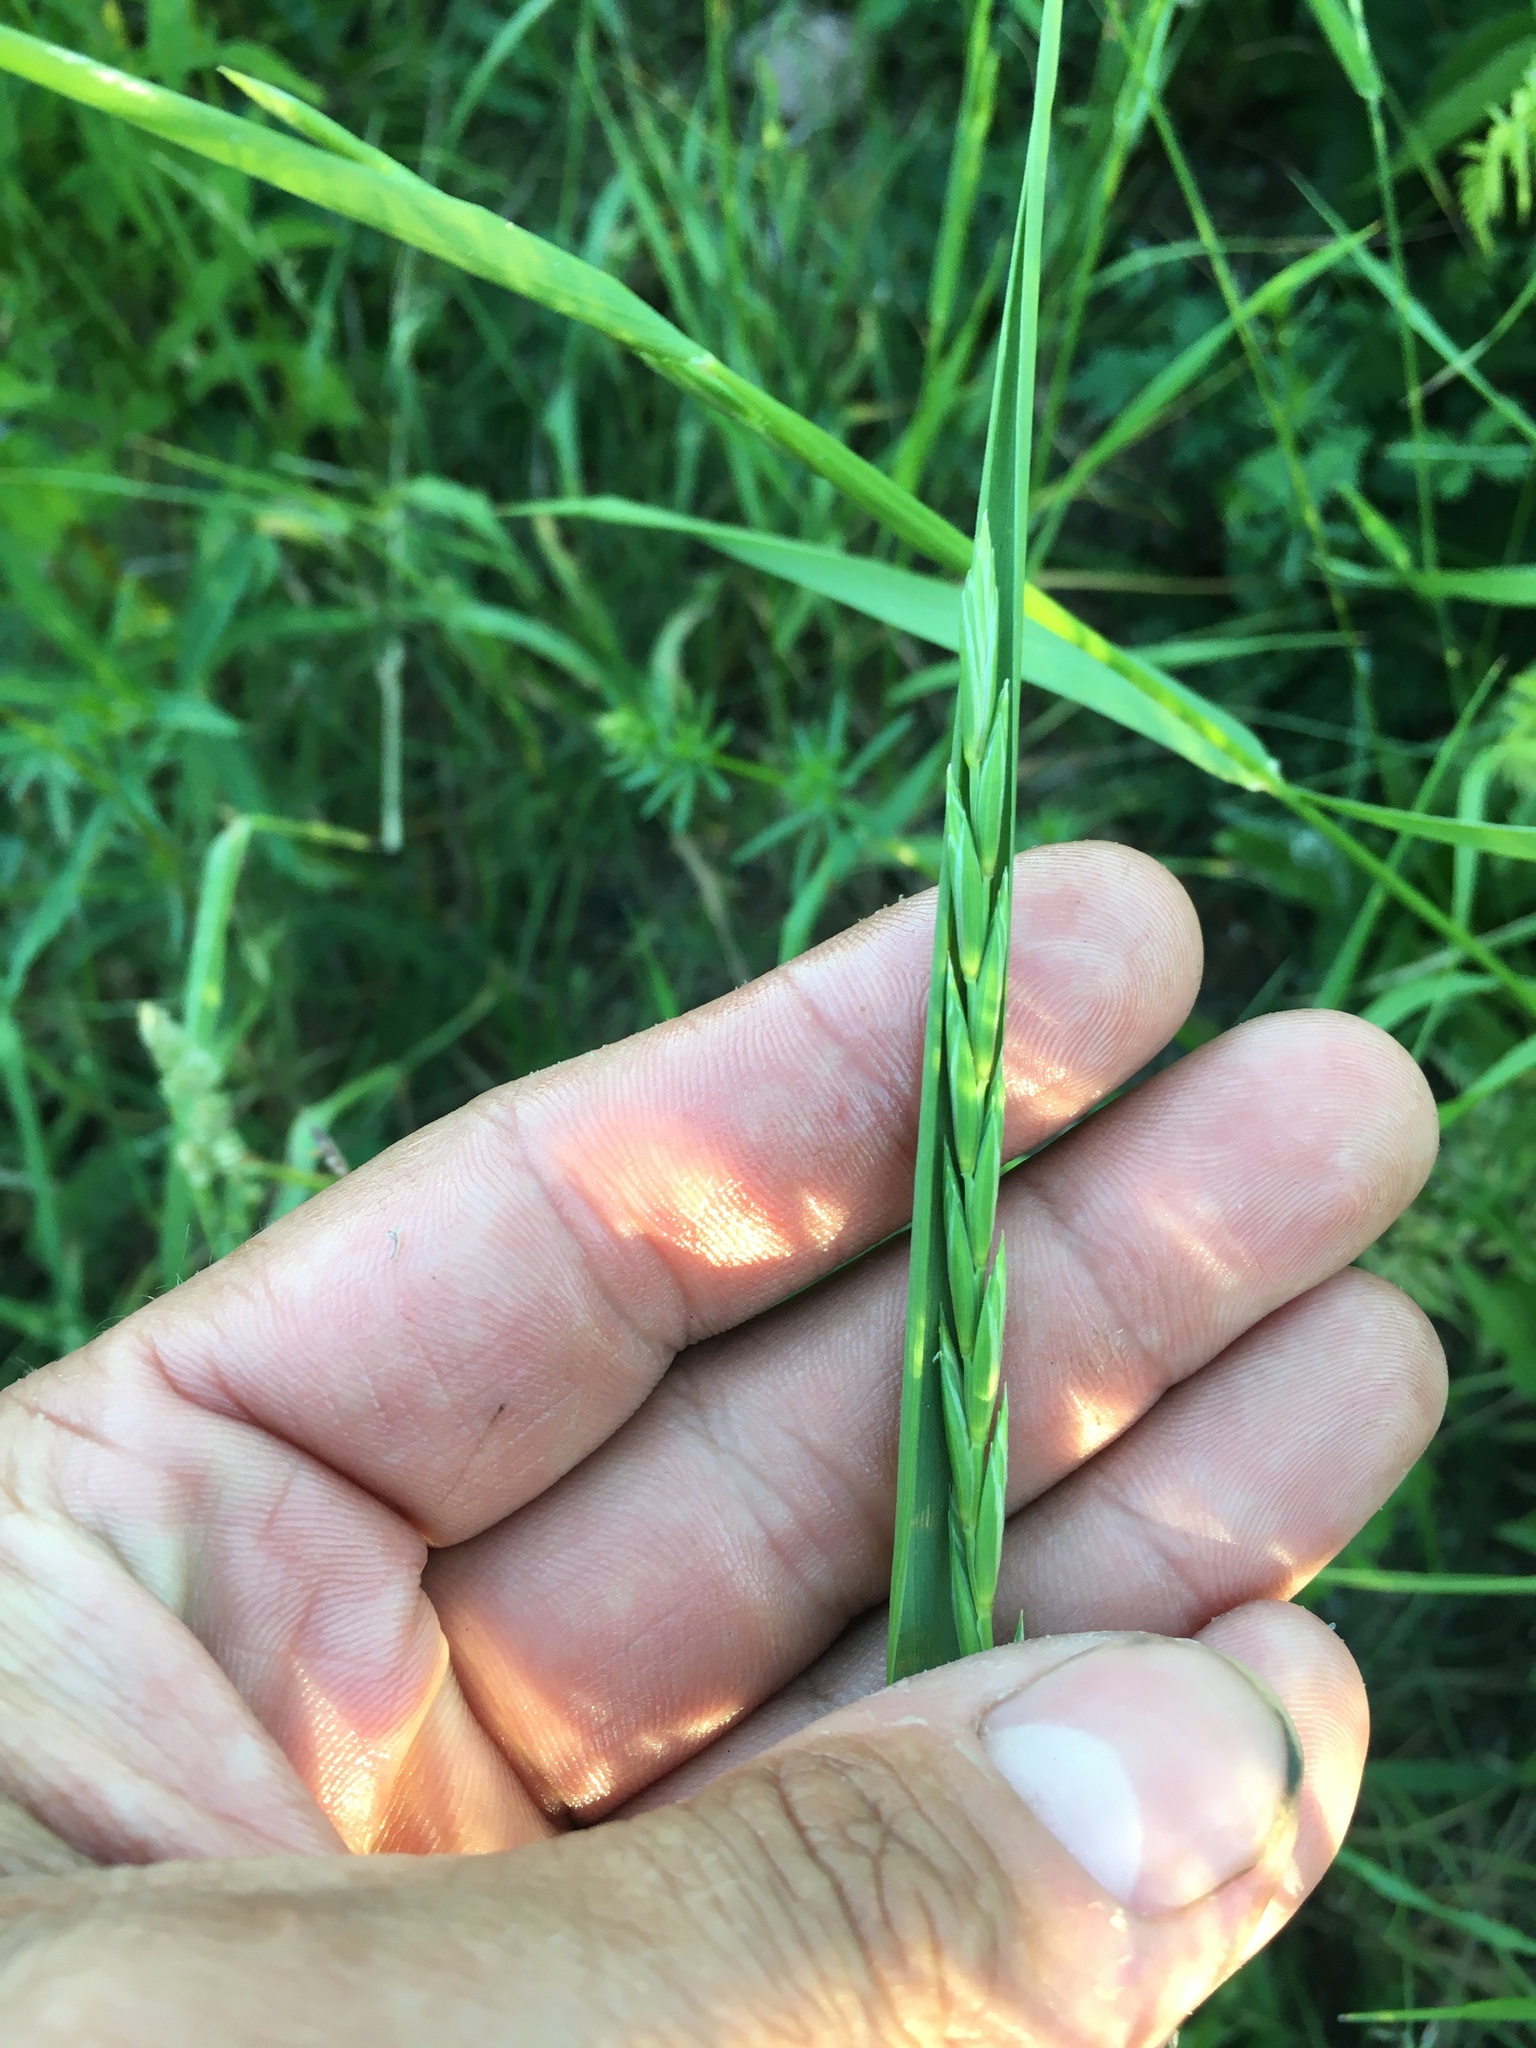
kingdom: Plantae
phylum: Tracheophyta
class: Liliopsida
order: Poales
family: Poaceae
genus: Elymus
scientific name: Elymus repens
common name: Quackgrass
